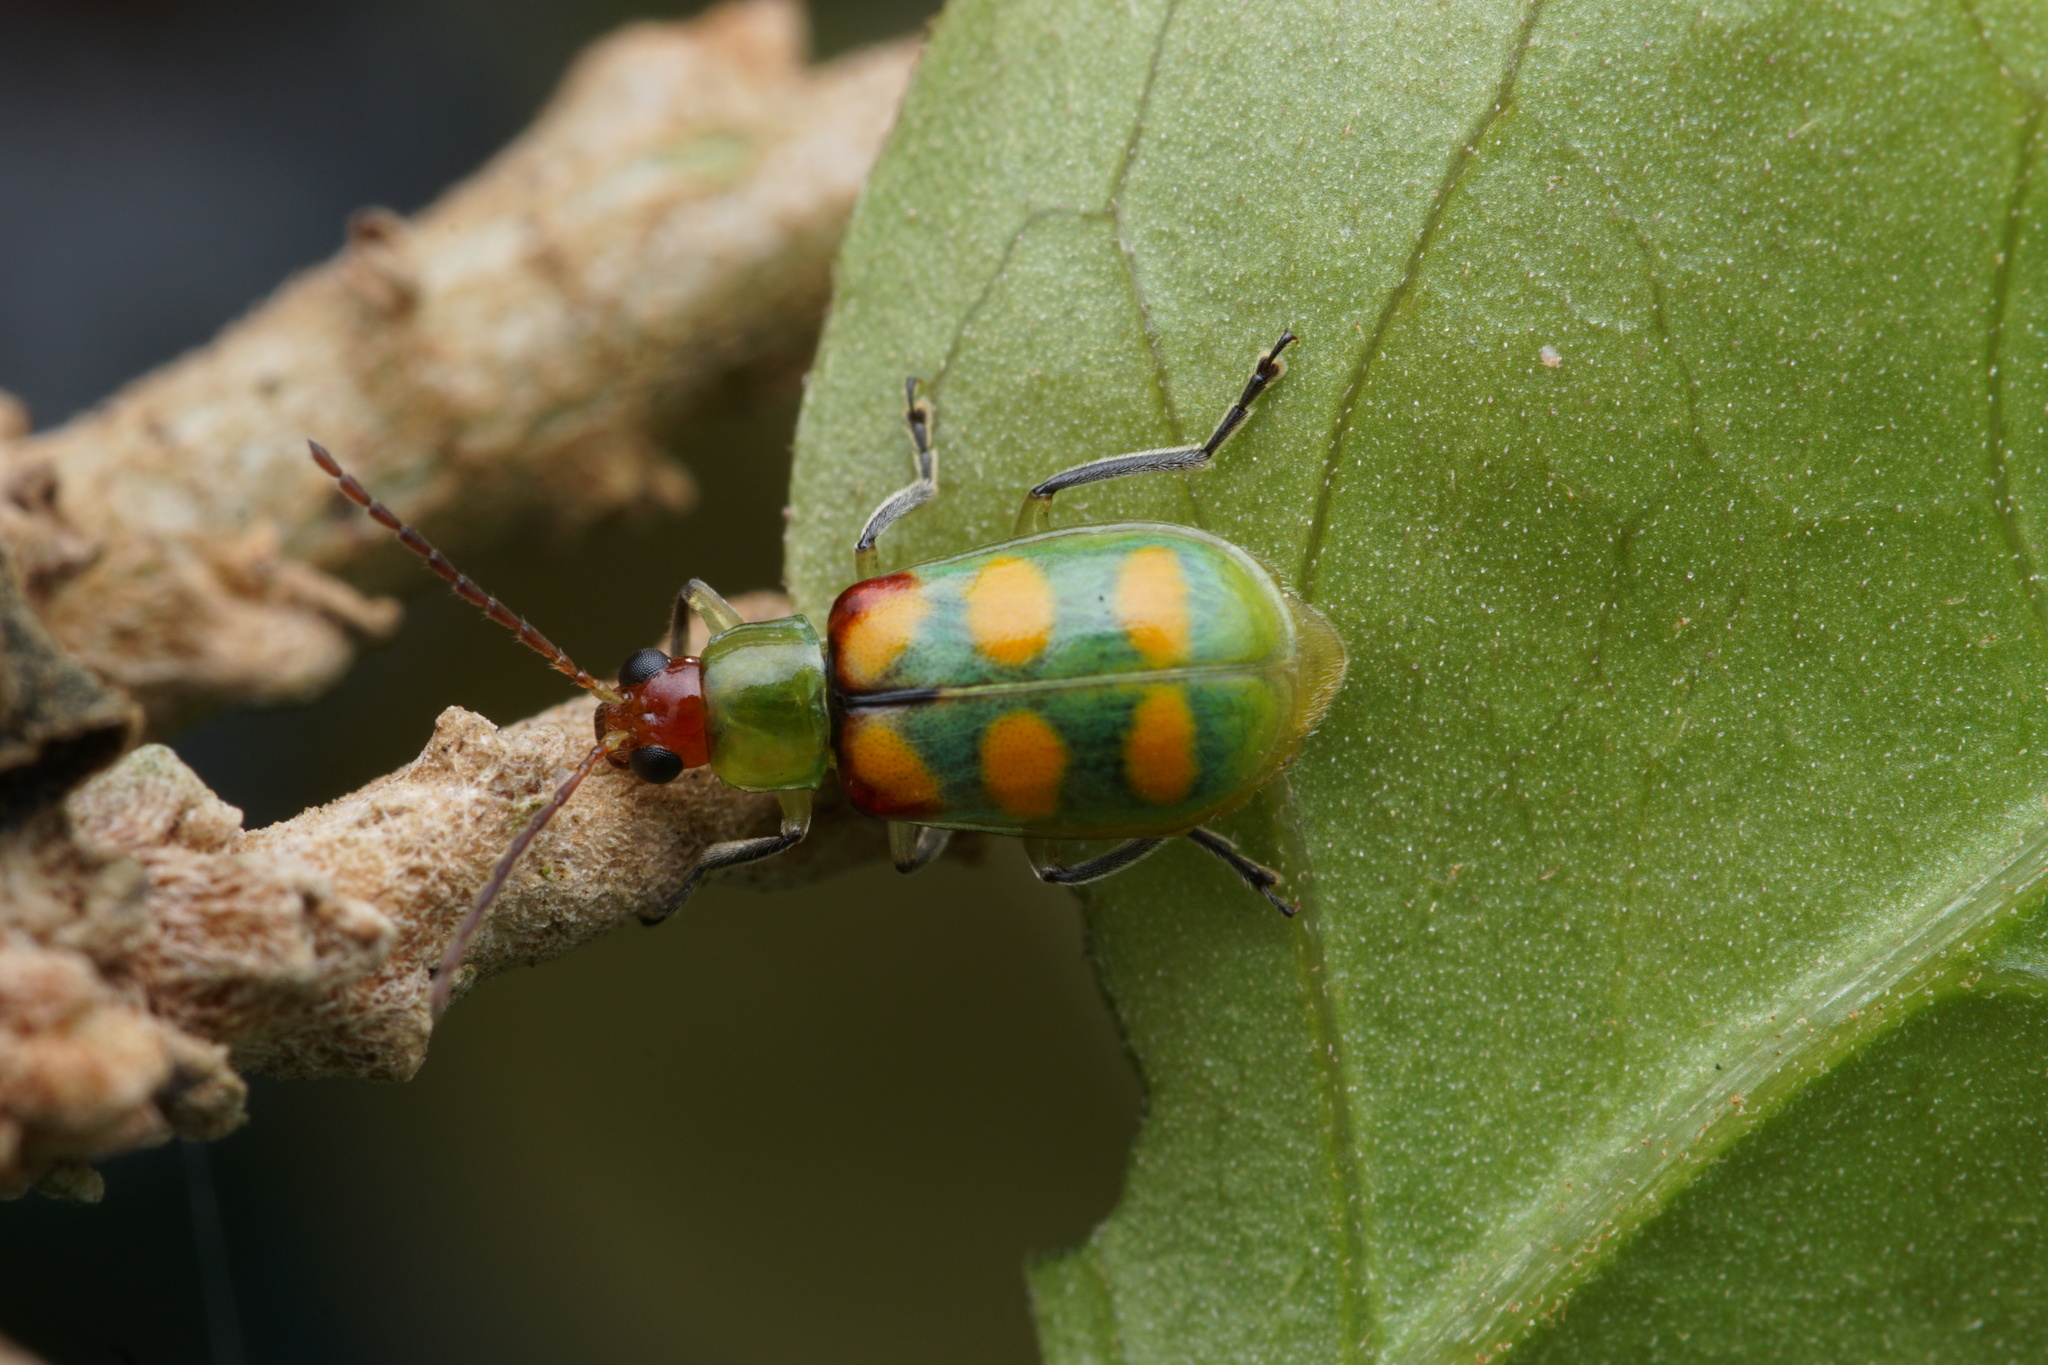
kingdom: Animalia
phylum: Arthropoda
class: Insecta
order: Coleoptera
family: Chrysomelidae
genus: Diabrotica
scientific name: Diabrotica speciosa
